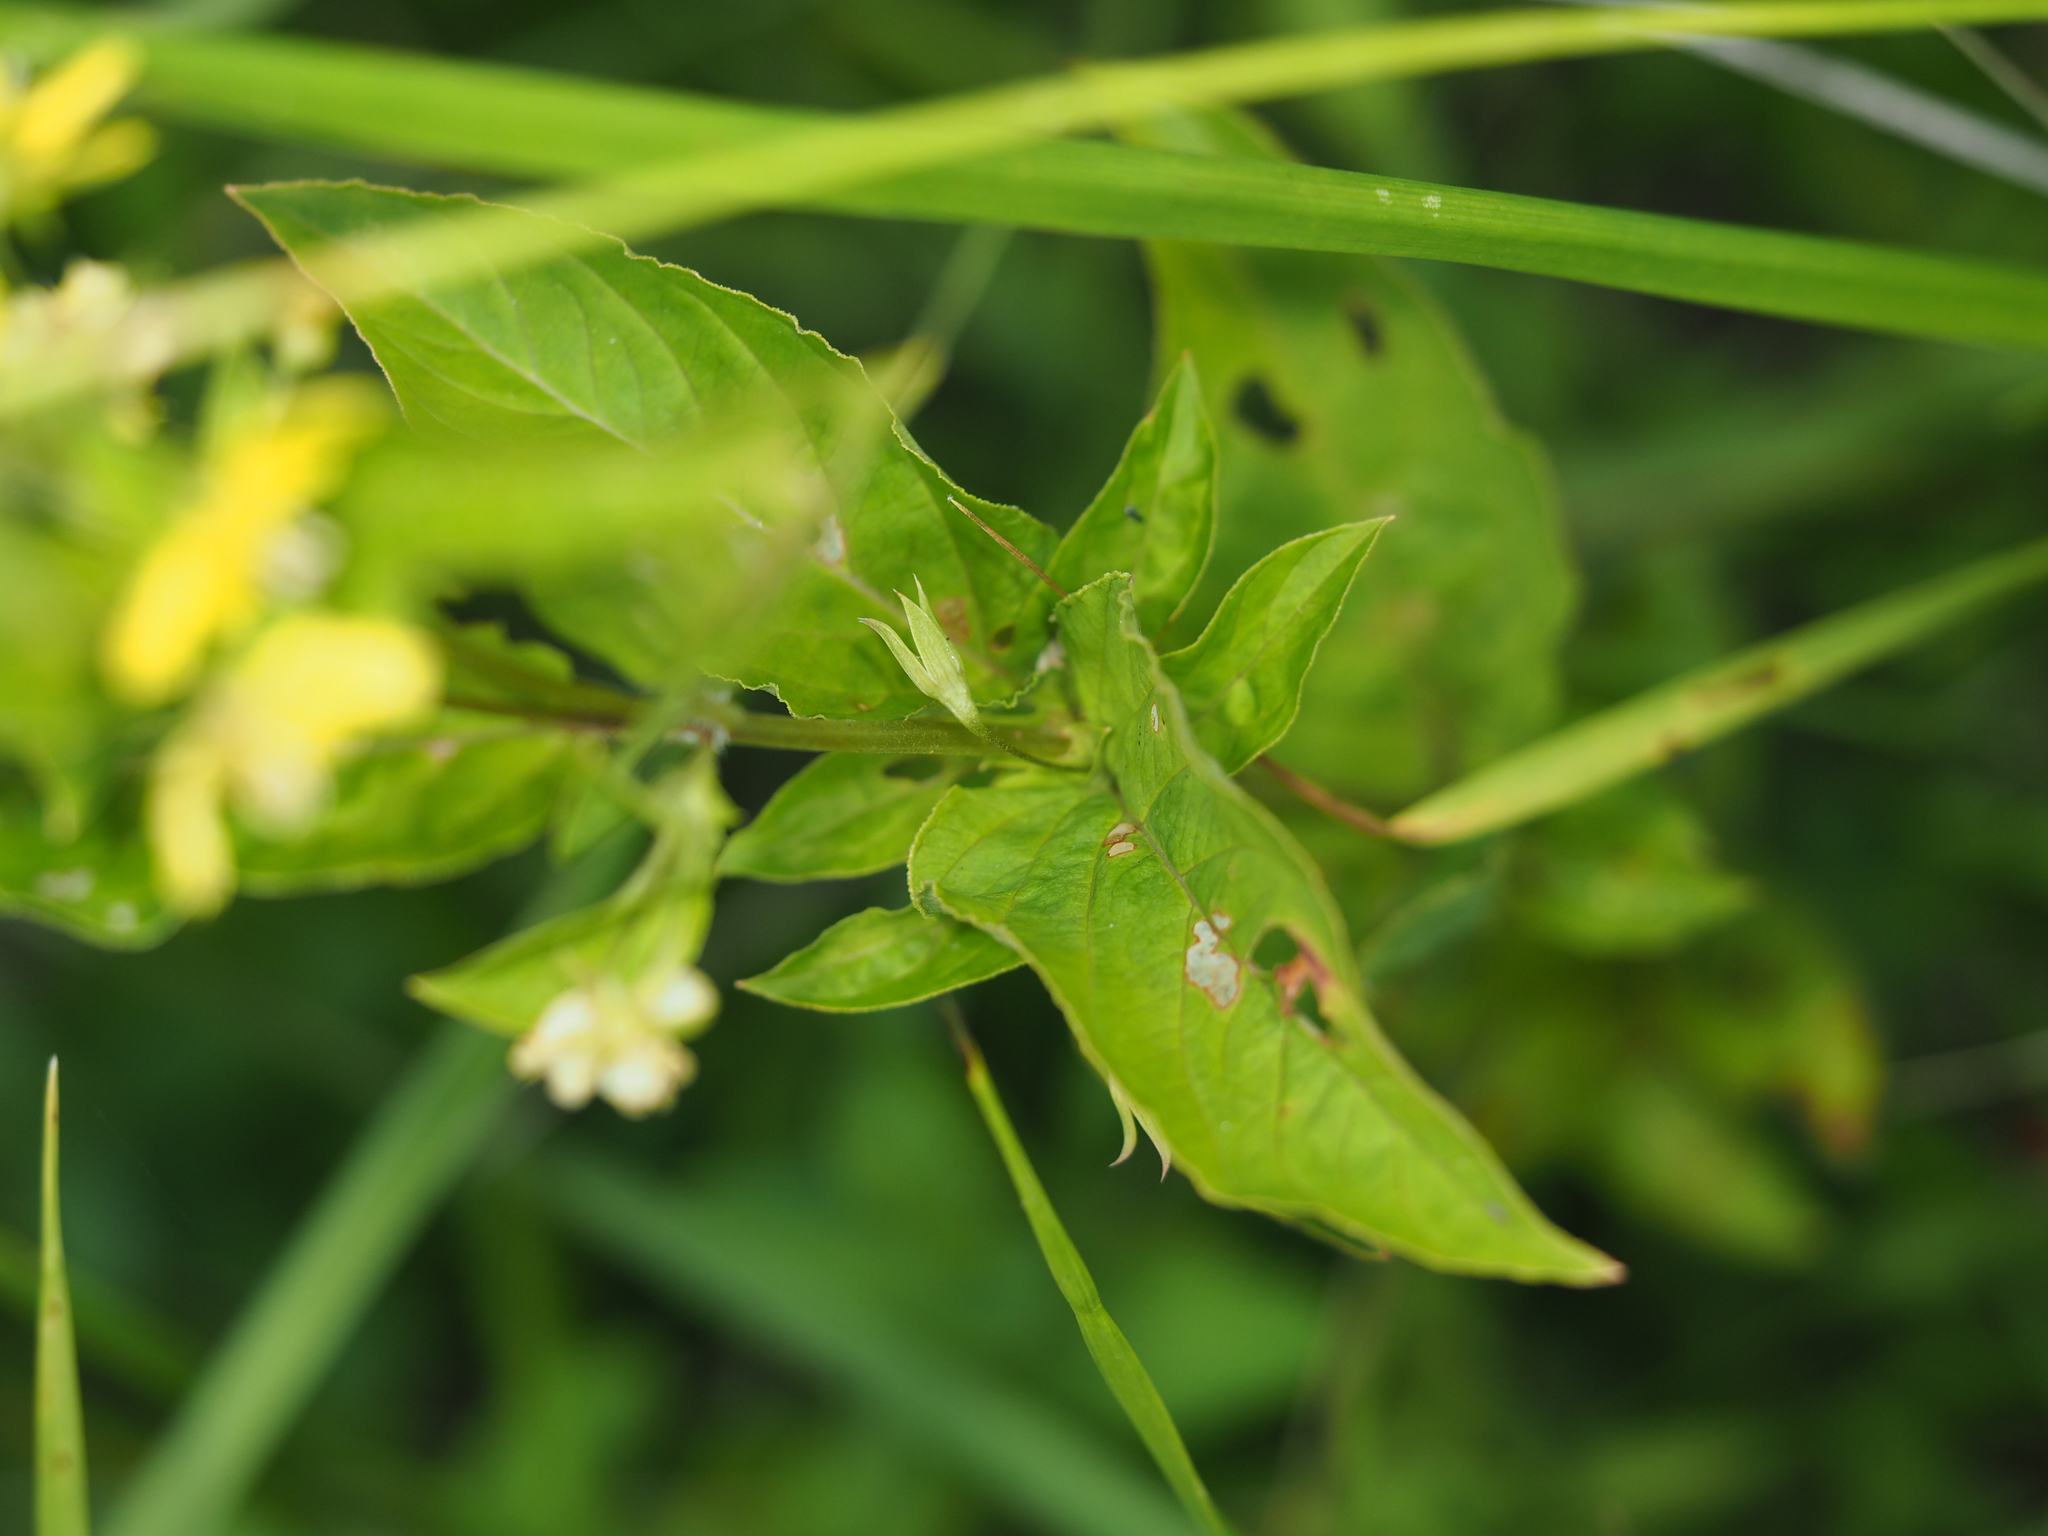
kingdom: Plantae
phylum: Tracheophyta
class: Magnoliopsida
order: Ericales
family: Primulaceae
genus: Lysimachia
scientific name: Lysimachia ciliata
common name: Fringed loosestrife
